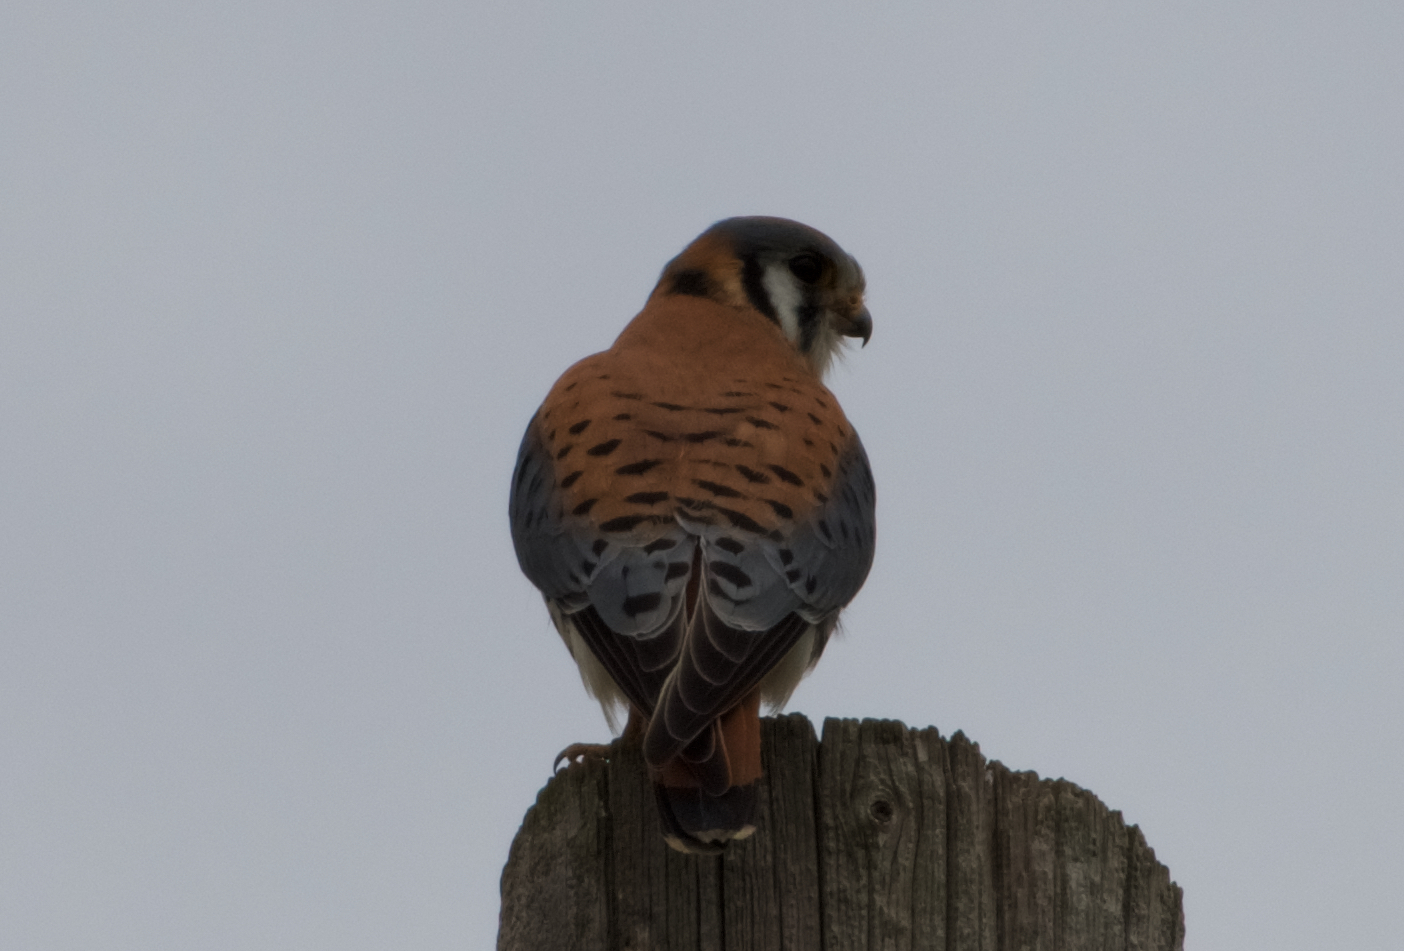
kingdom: Animalia
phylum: Chordata
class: Aves
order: Falconiformes
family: Falconidae
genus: Falco
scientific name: Falco sparverius
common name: American kestrel
